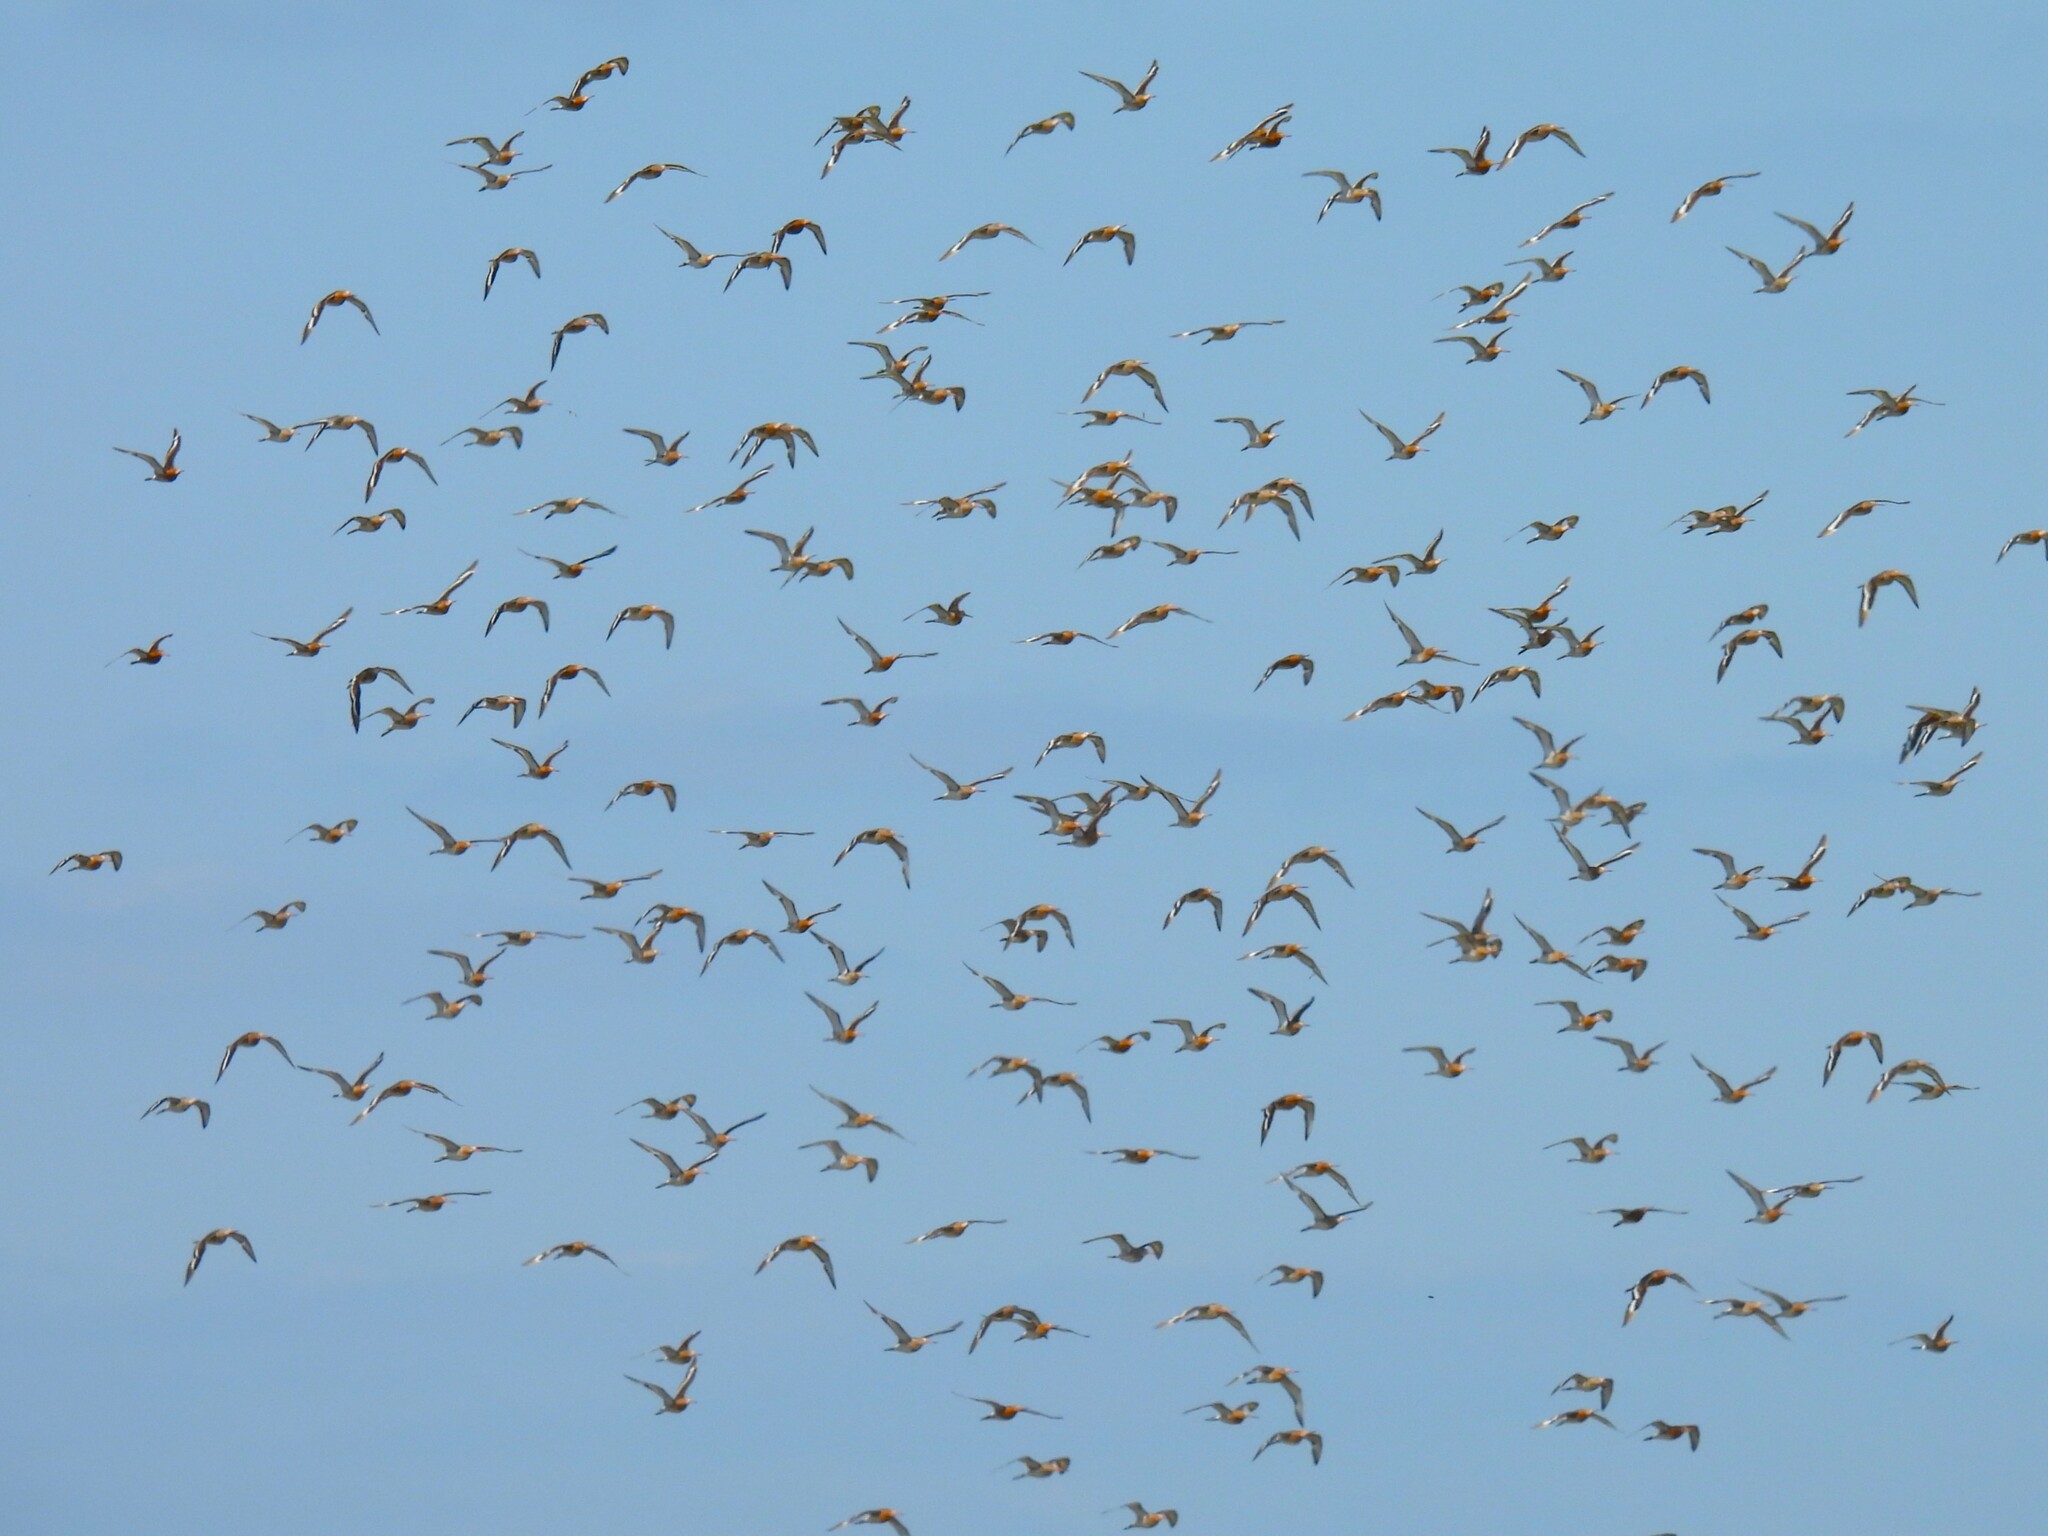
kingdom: Animalia
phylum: Chordata
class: Aves
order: Charadriiformes
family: Scolopacidae
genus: Limosa
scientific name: Limosa limosa
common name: Black-tailed godwit
